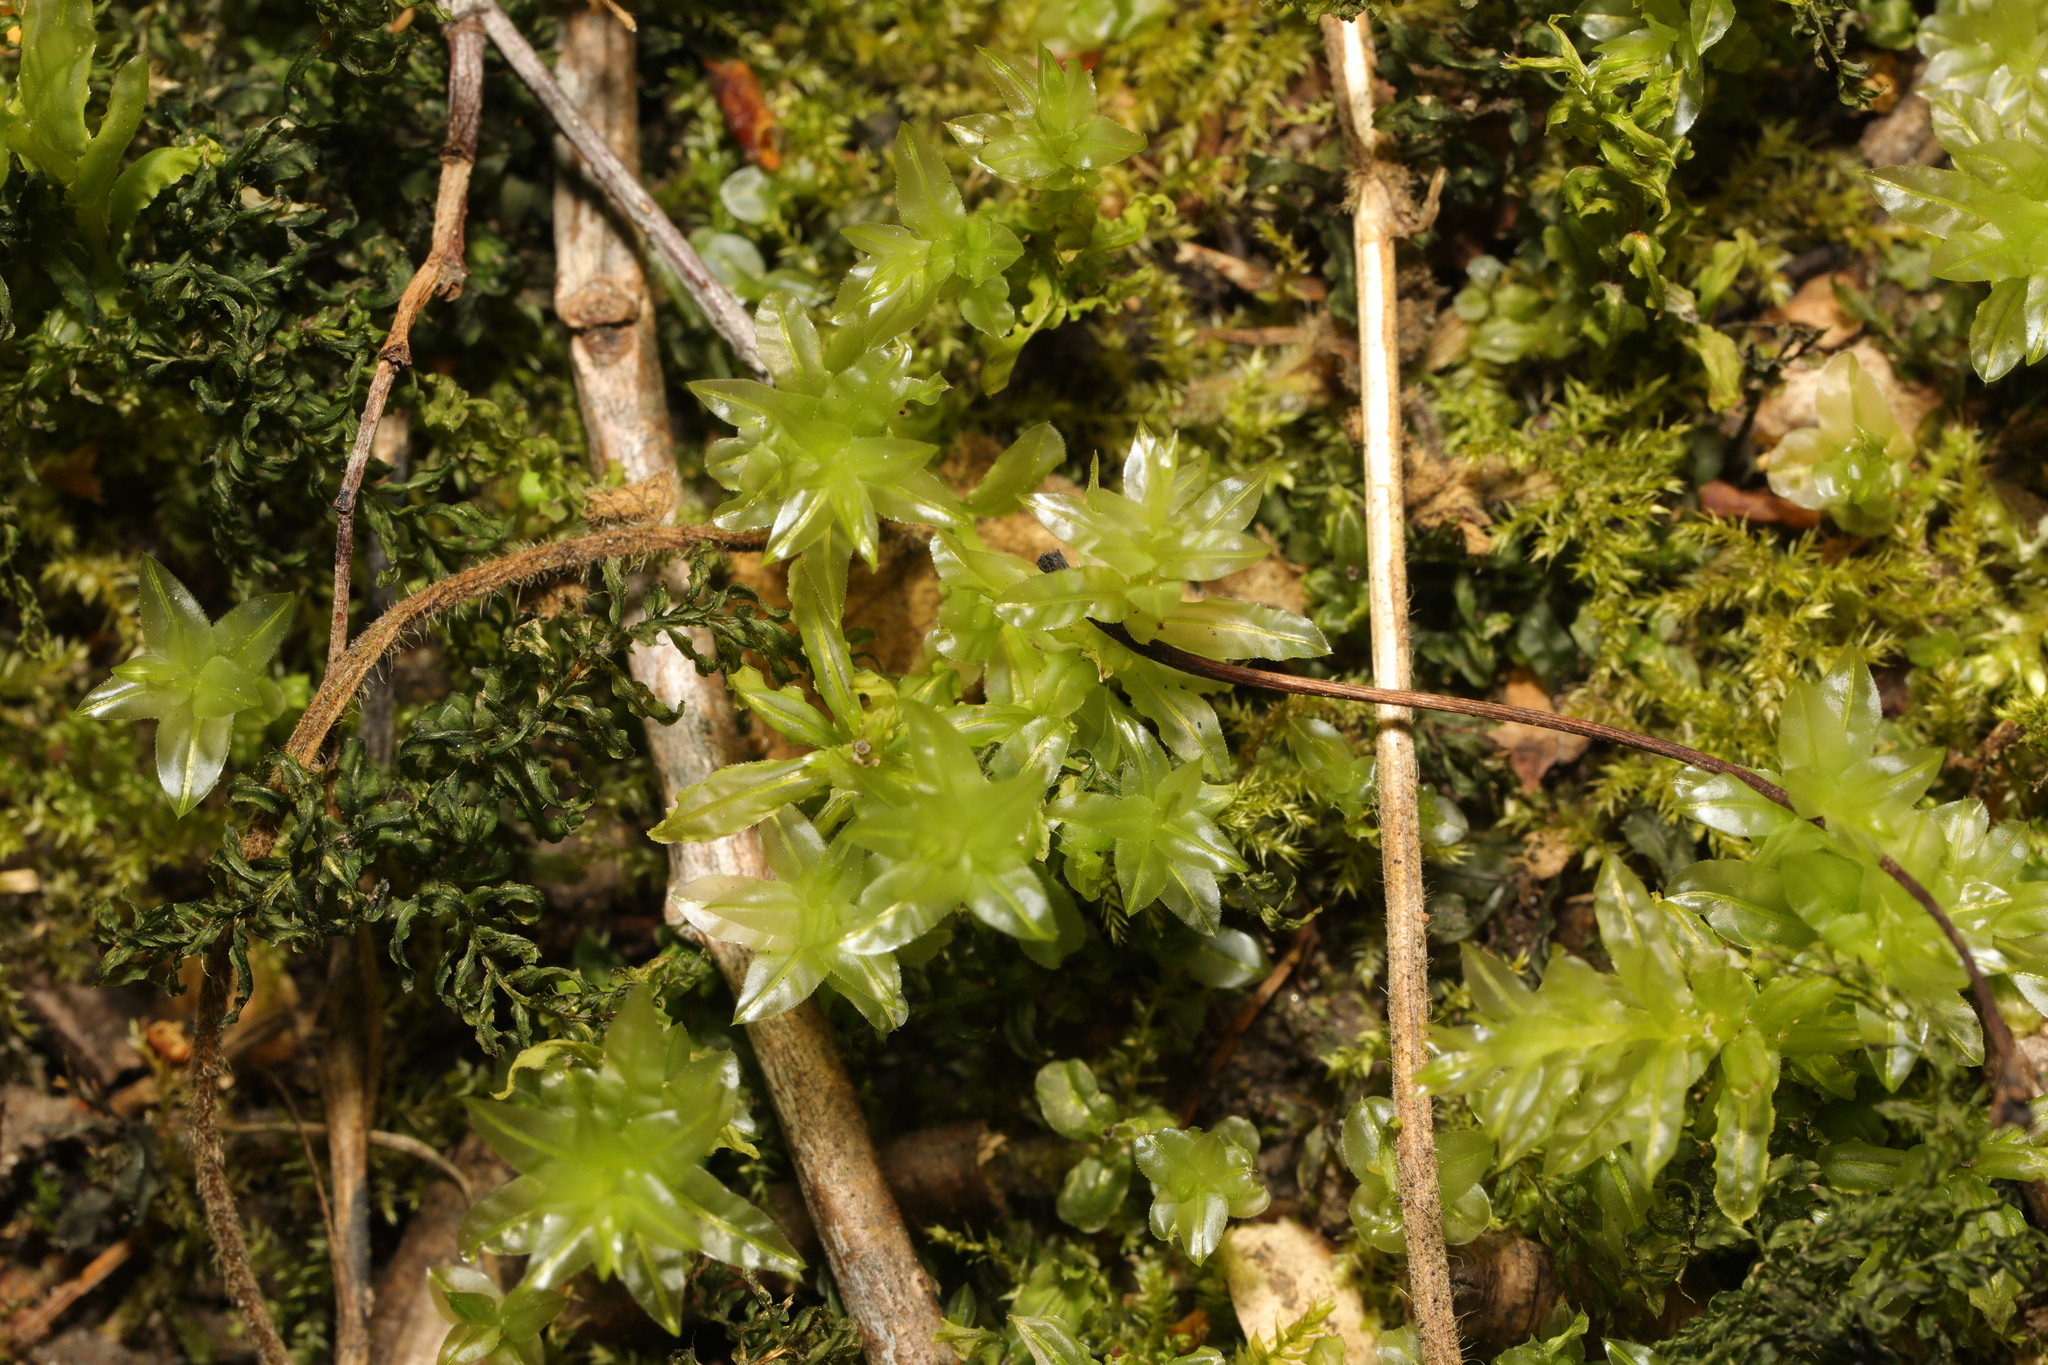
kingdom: Plantae
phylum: Bryophyta
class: Bryopsida
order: Bryales
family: Mniaceae
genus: Plagiomnium
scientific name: Plagiomnium undulatum
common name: Hart's-tongue thyme-moss
